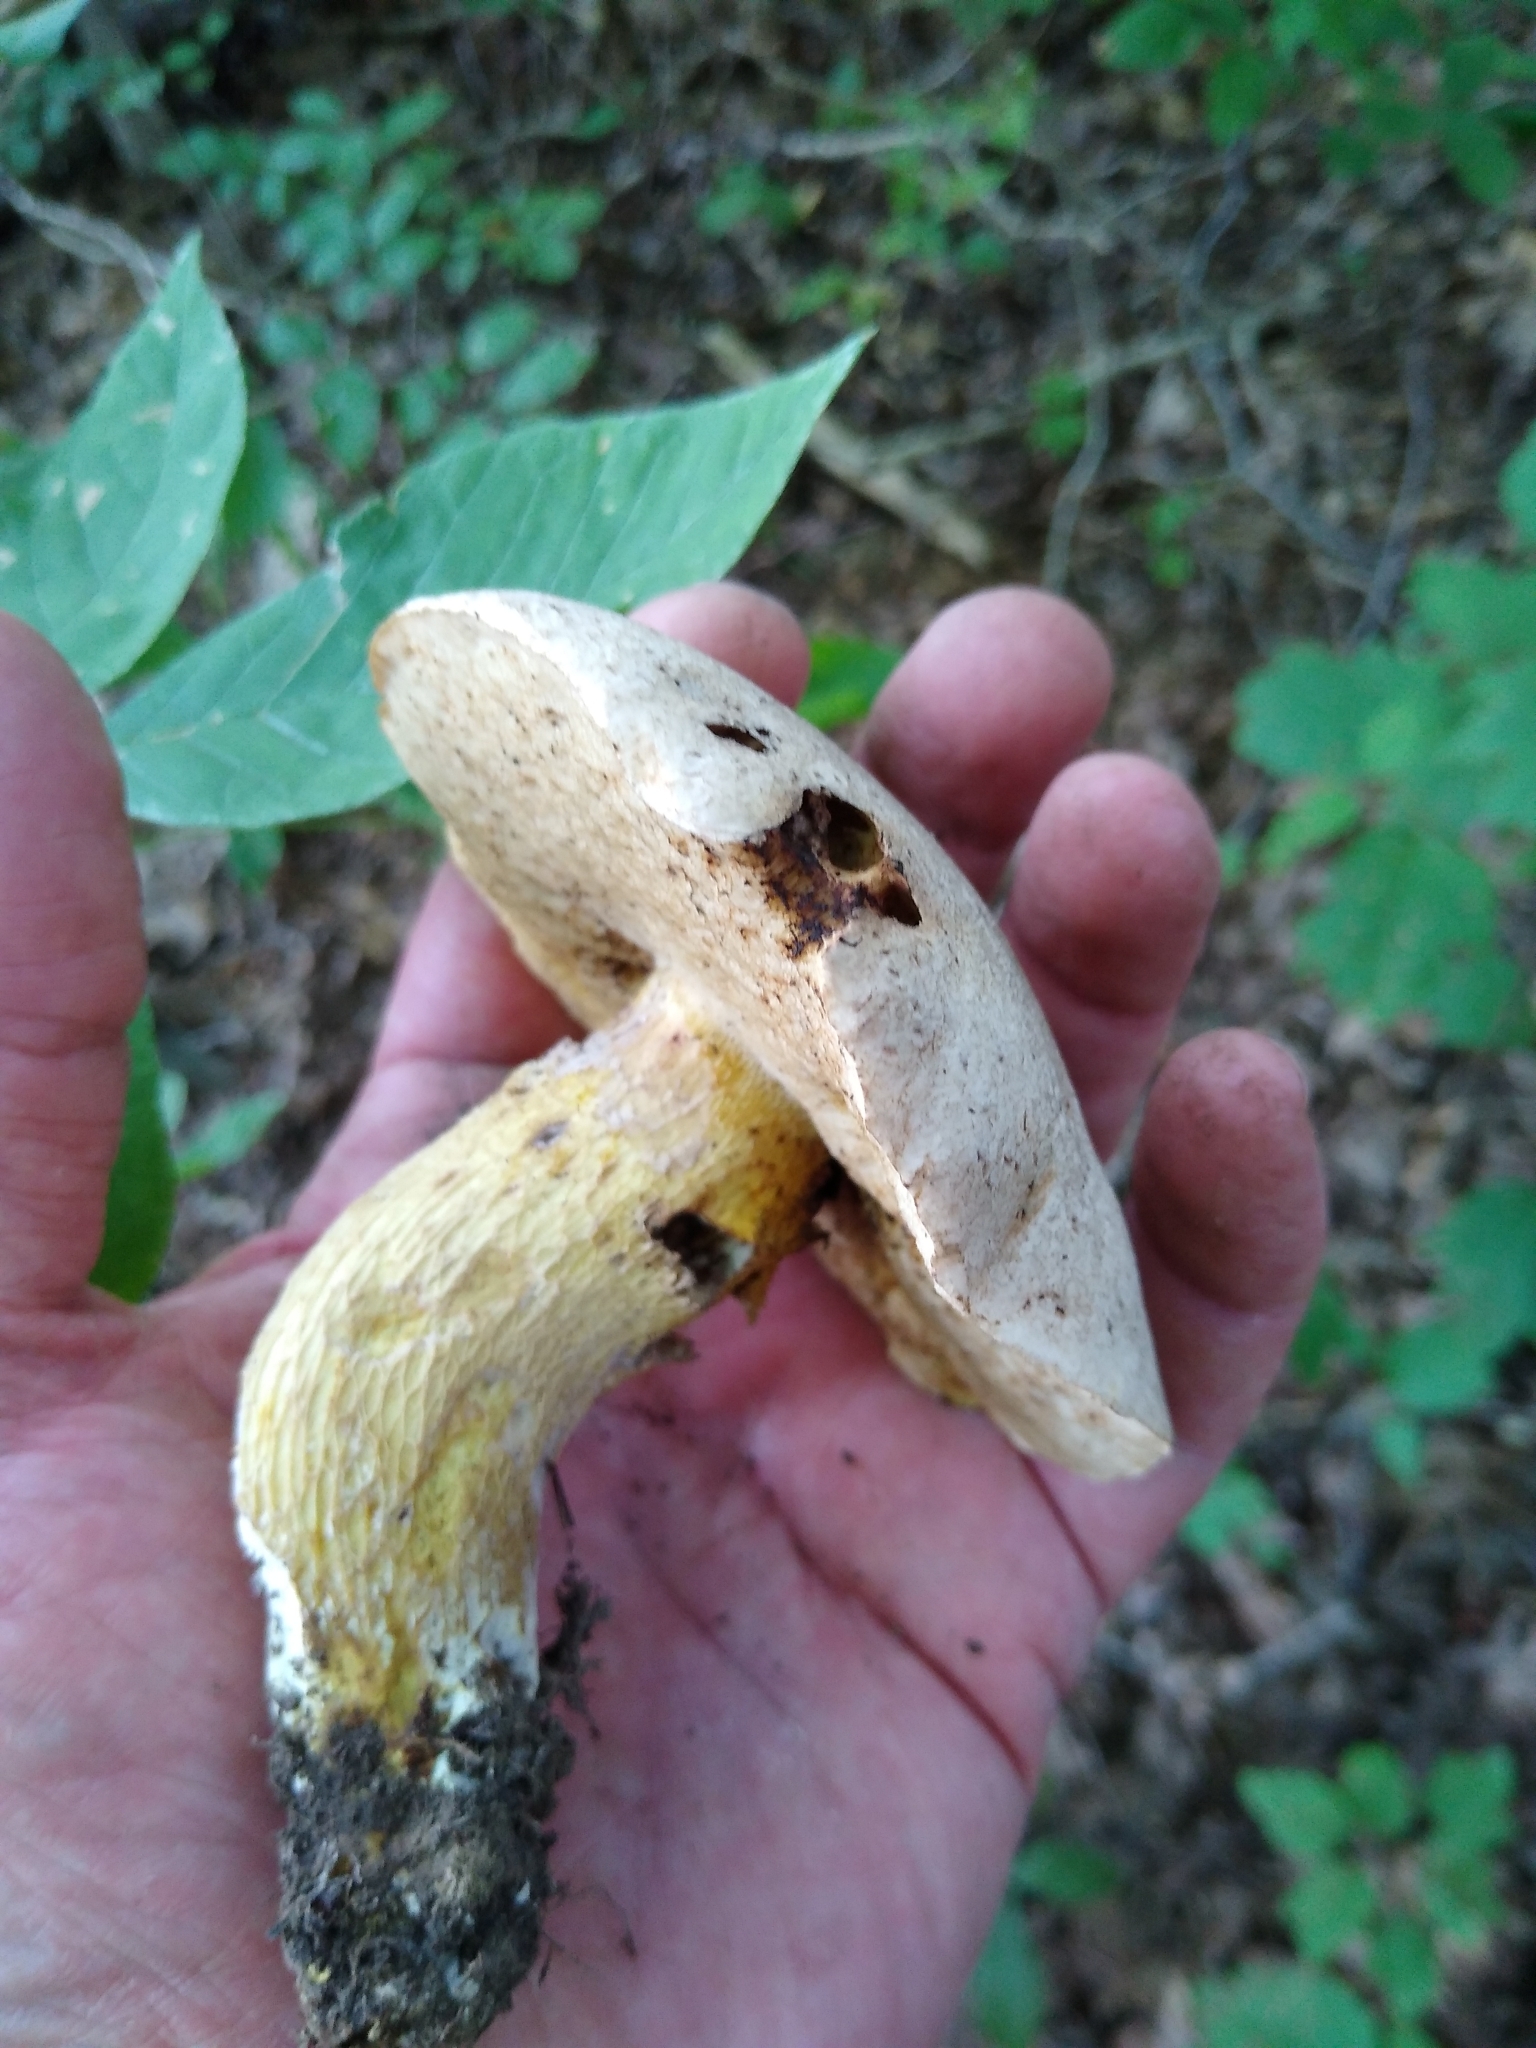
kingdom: Fungi
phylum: Basidiomycota
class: Agaricomycetes
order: Boletales
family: Boletaceae
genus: Retiboletus
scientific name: Retiboletus griseus
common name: Grey bolete
